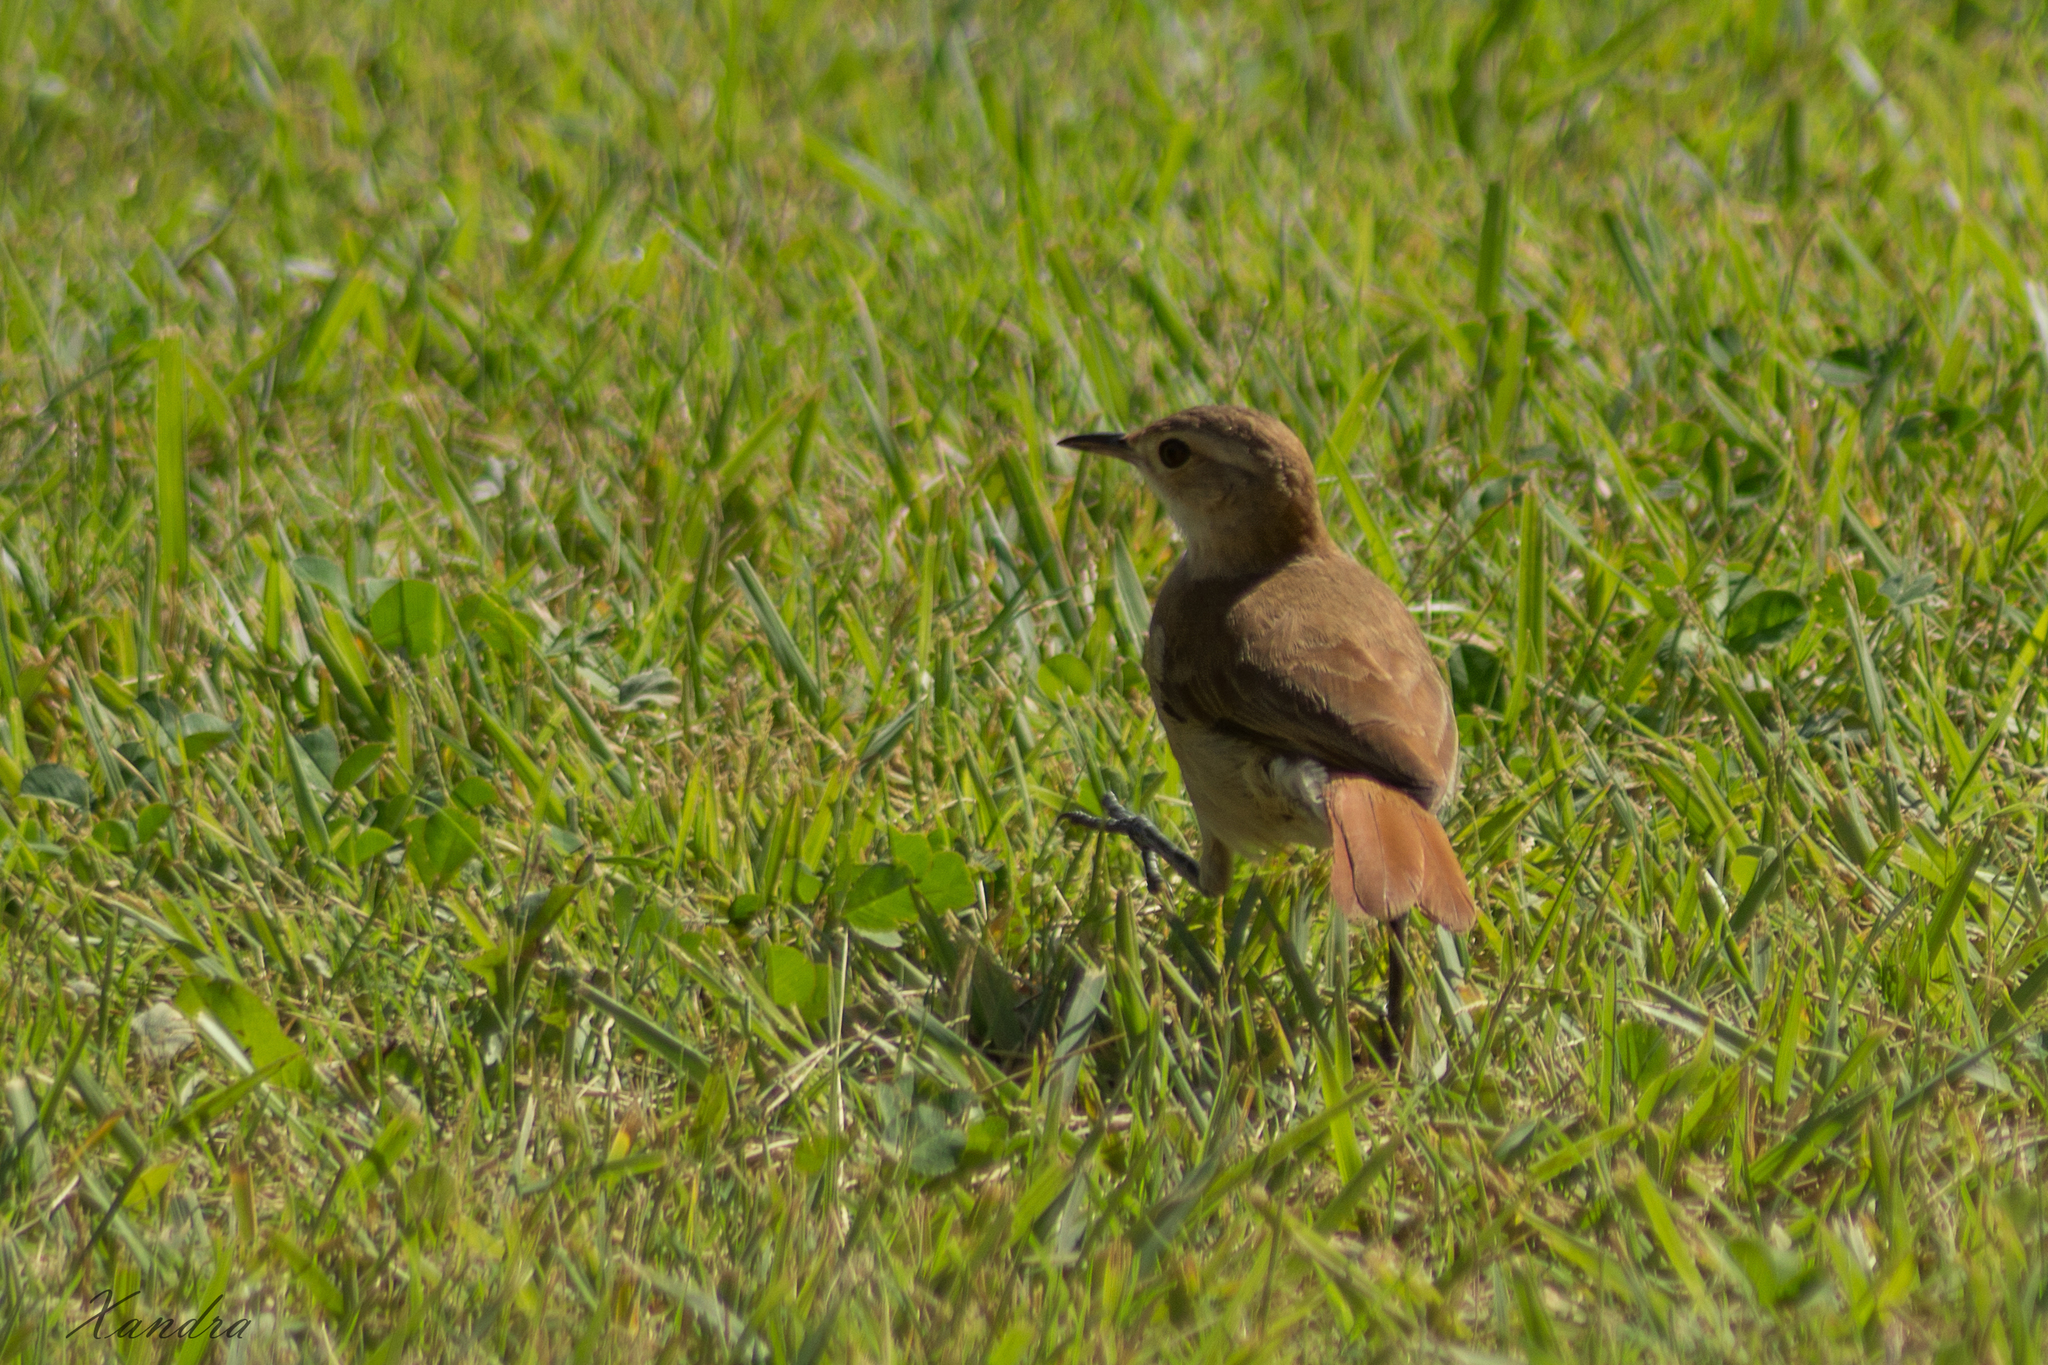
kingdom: Animalia
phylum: Chordata
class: Aves
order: Passeriformes
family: Furnariidae
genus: Furnarius
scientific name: Furnarius rufus
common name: Rufous hornero
